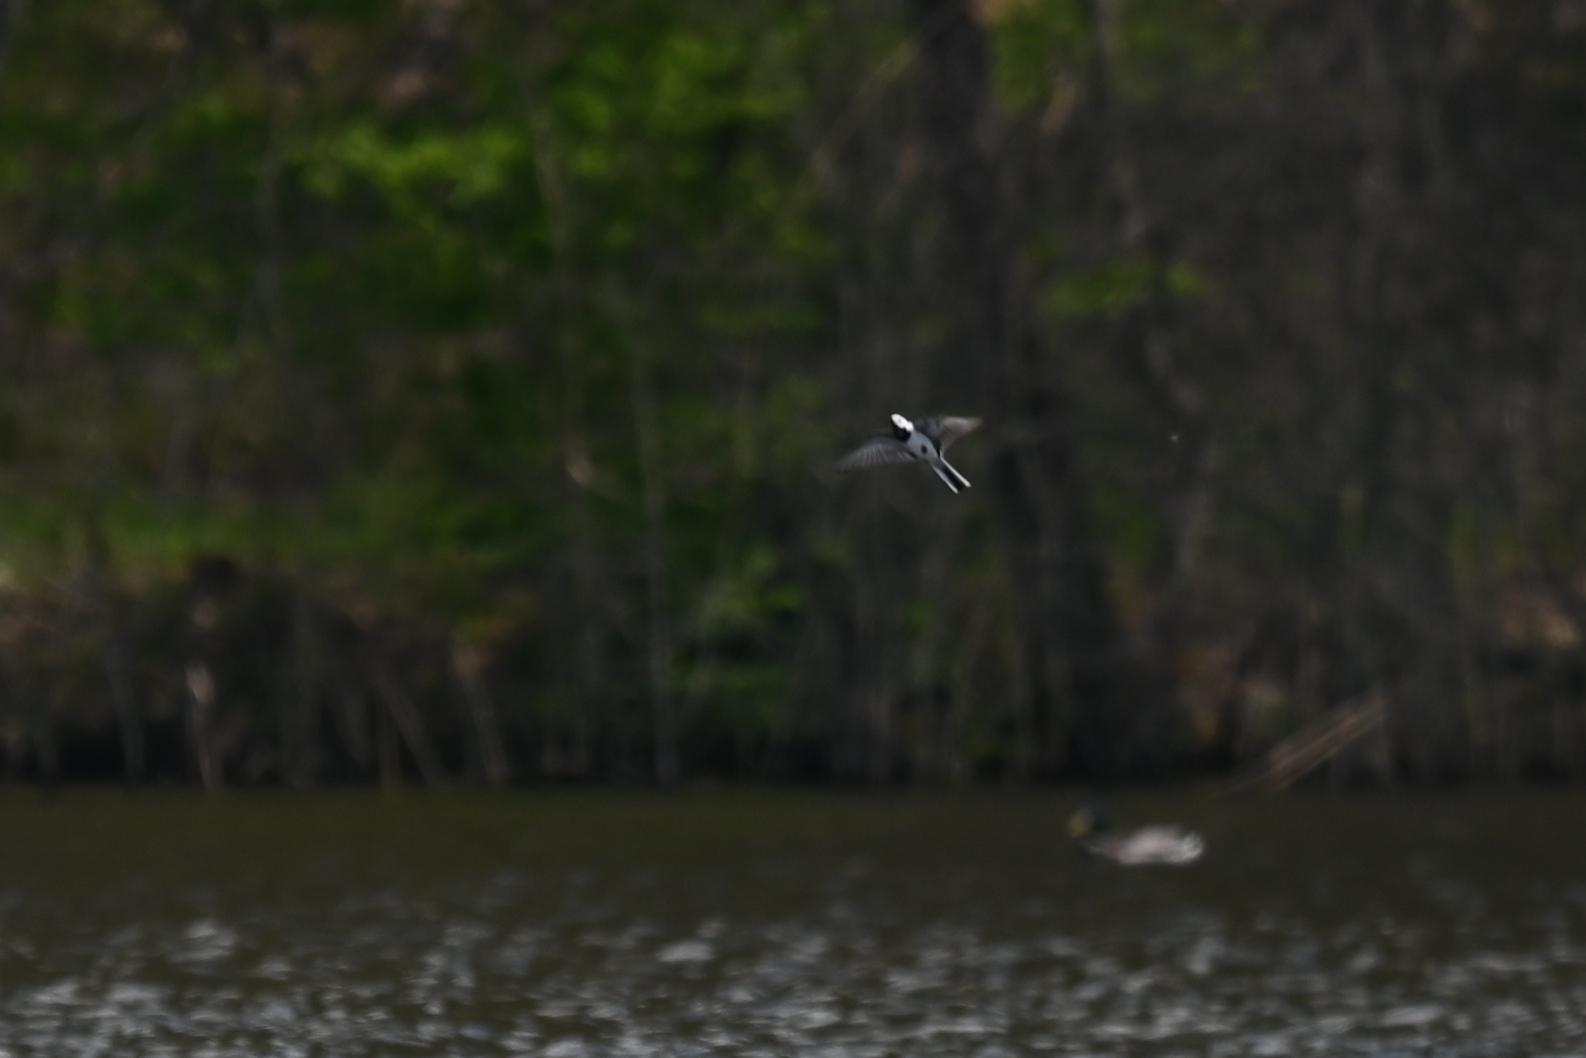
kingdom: Animalia
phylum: Chordata
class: Aves
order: Passeriformes
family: Motacillidae
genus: Motacilla
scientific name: Motacilla alba
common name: White wagtail
